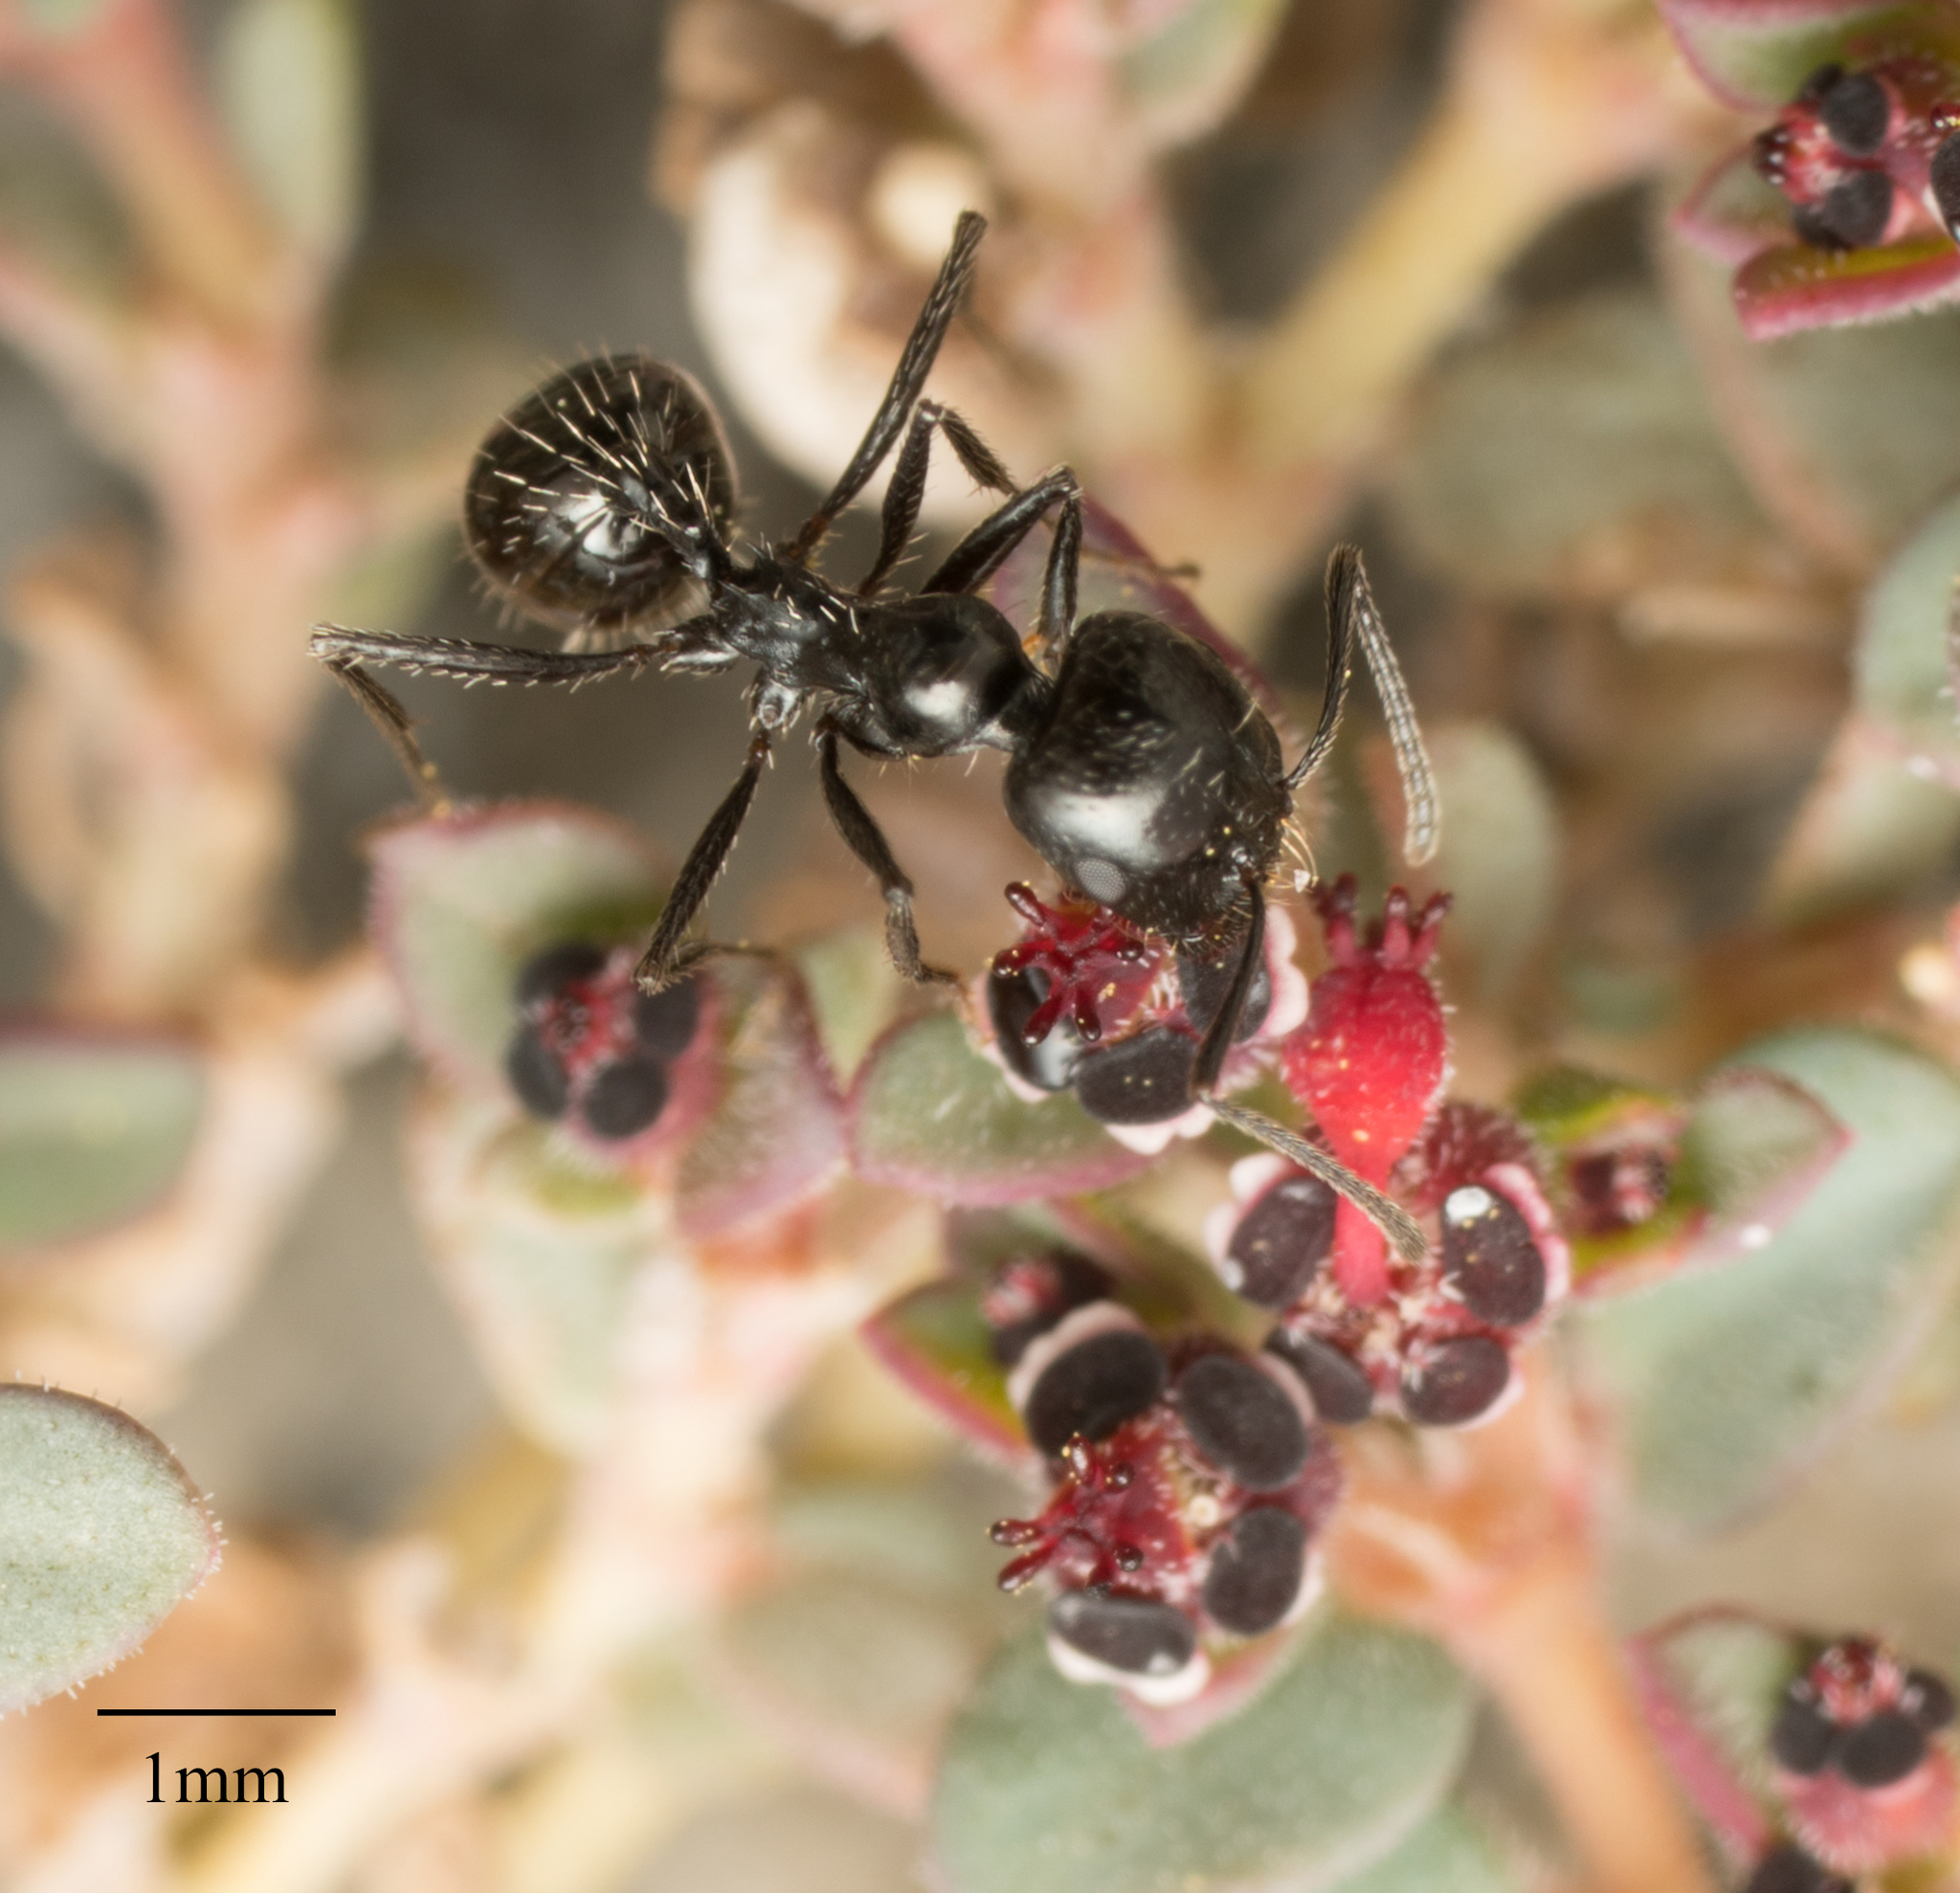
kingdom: Animalia
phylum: Arthropoda
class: Insecta
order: Hymenoptera
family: Formicidae
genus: Messor
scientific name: Messor pergandei
